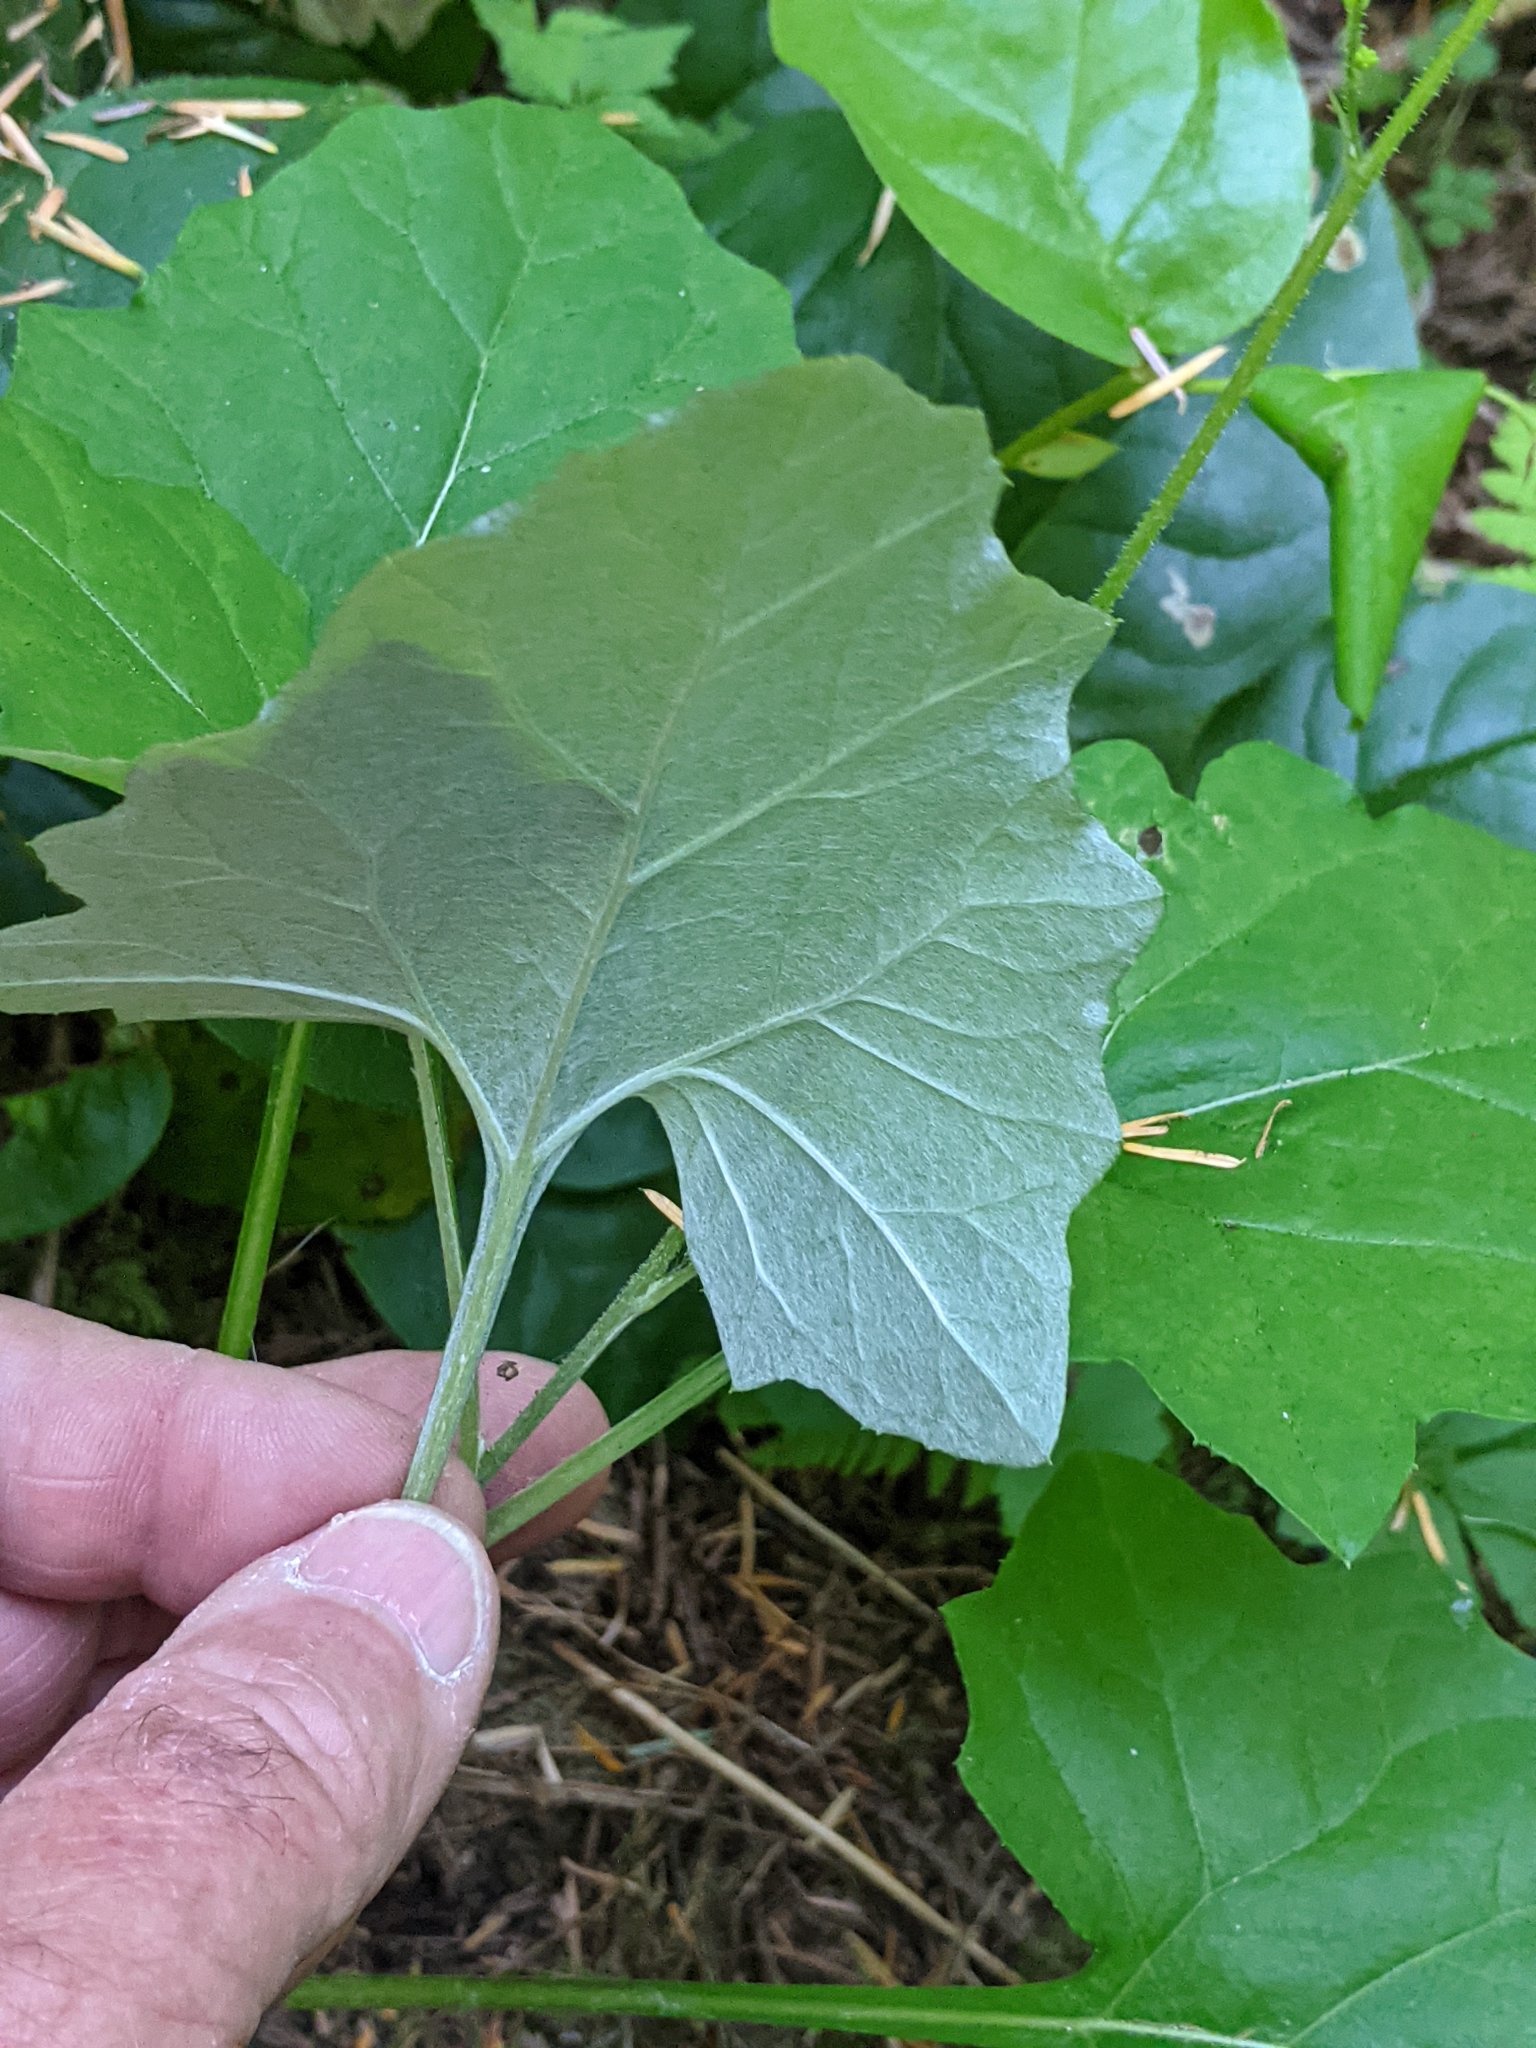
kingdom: Plantae
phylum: Tracheophyta
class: Magnoliopsida
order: Asterales
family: Asteraceae
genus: Adenocaulon
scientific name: Adenocaulon bicolor
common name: Trailplant
